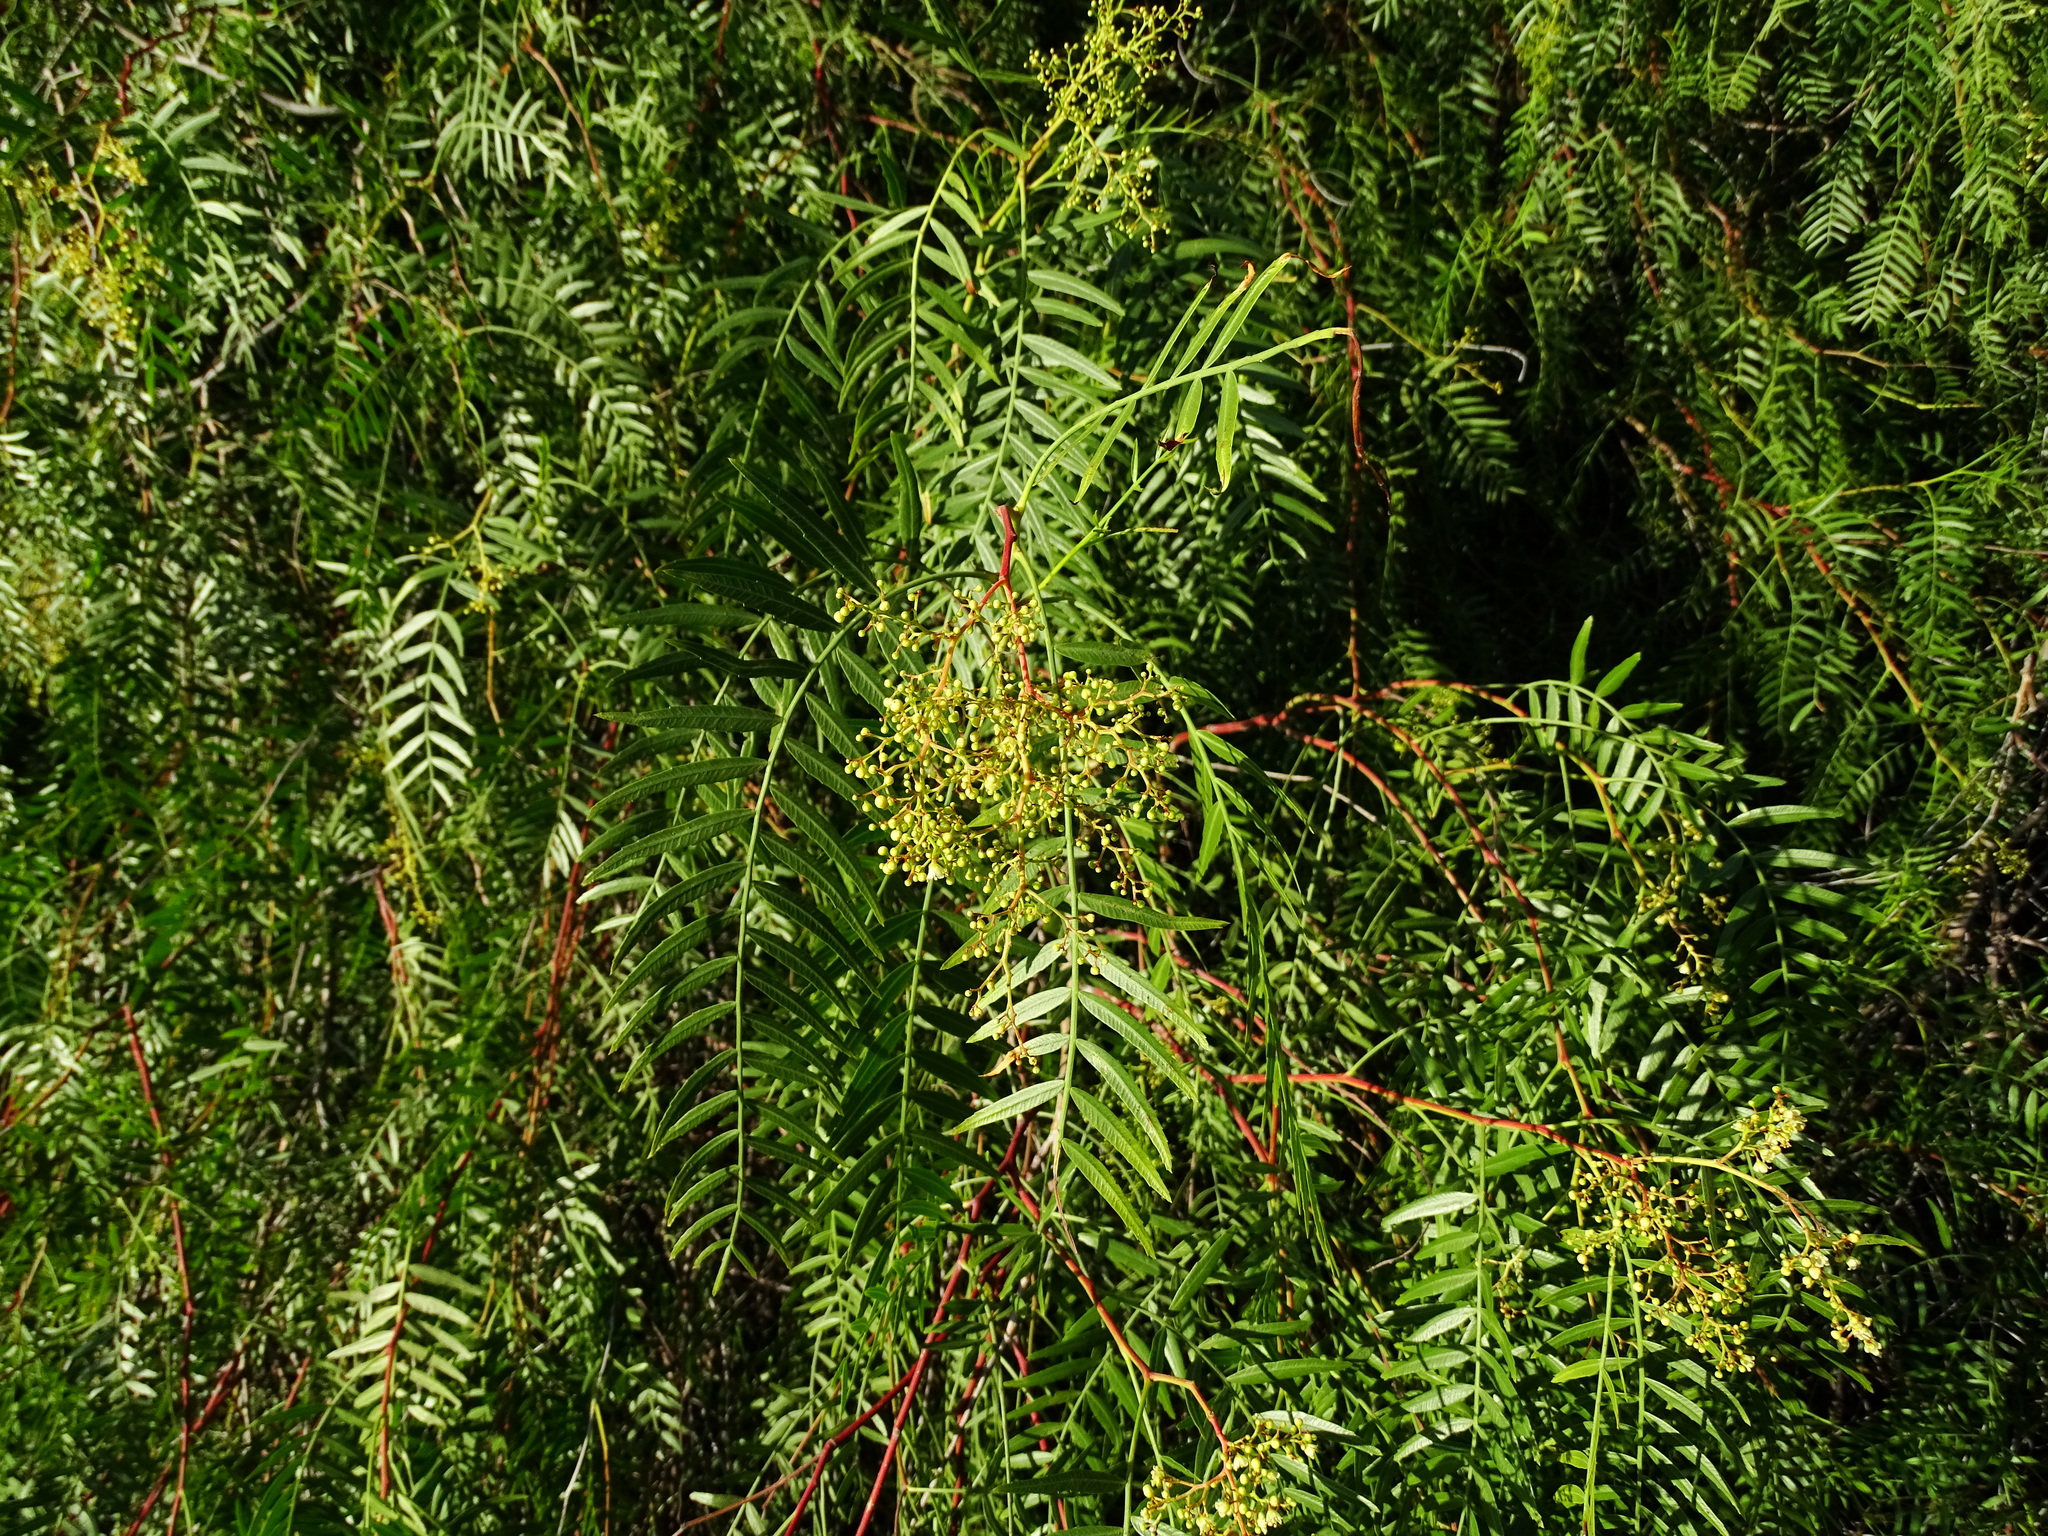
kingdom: Plantae
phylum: Tracheophyta
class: Magnoliopsida
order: Sapindales
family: Anacardiaceae
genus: Schinus
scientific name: Schinus molle
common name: Peruvian peppertree
